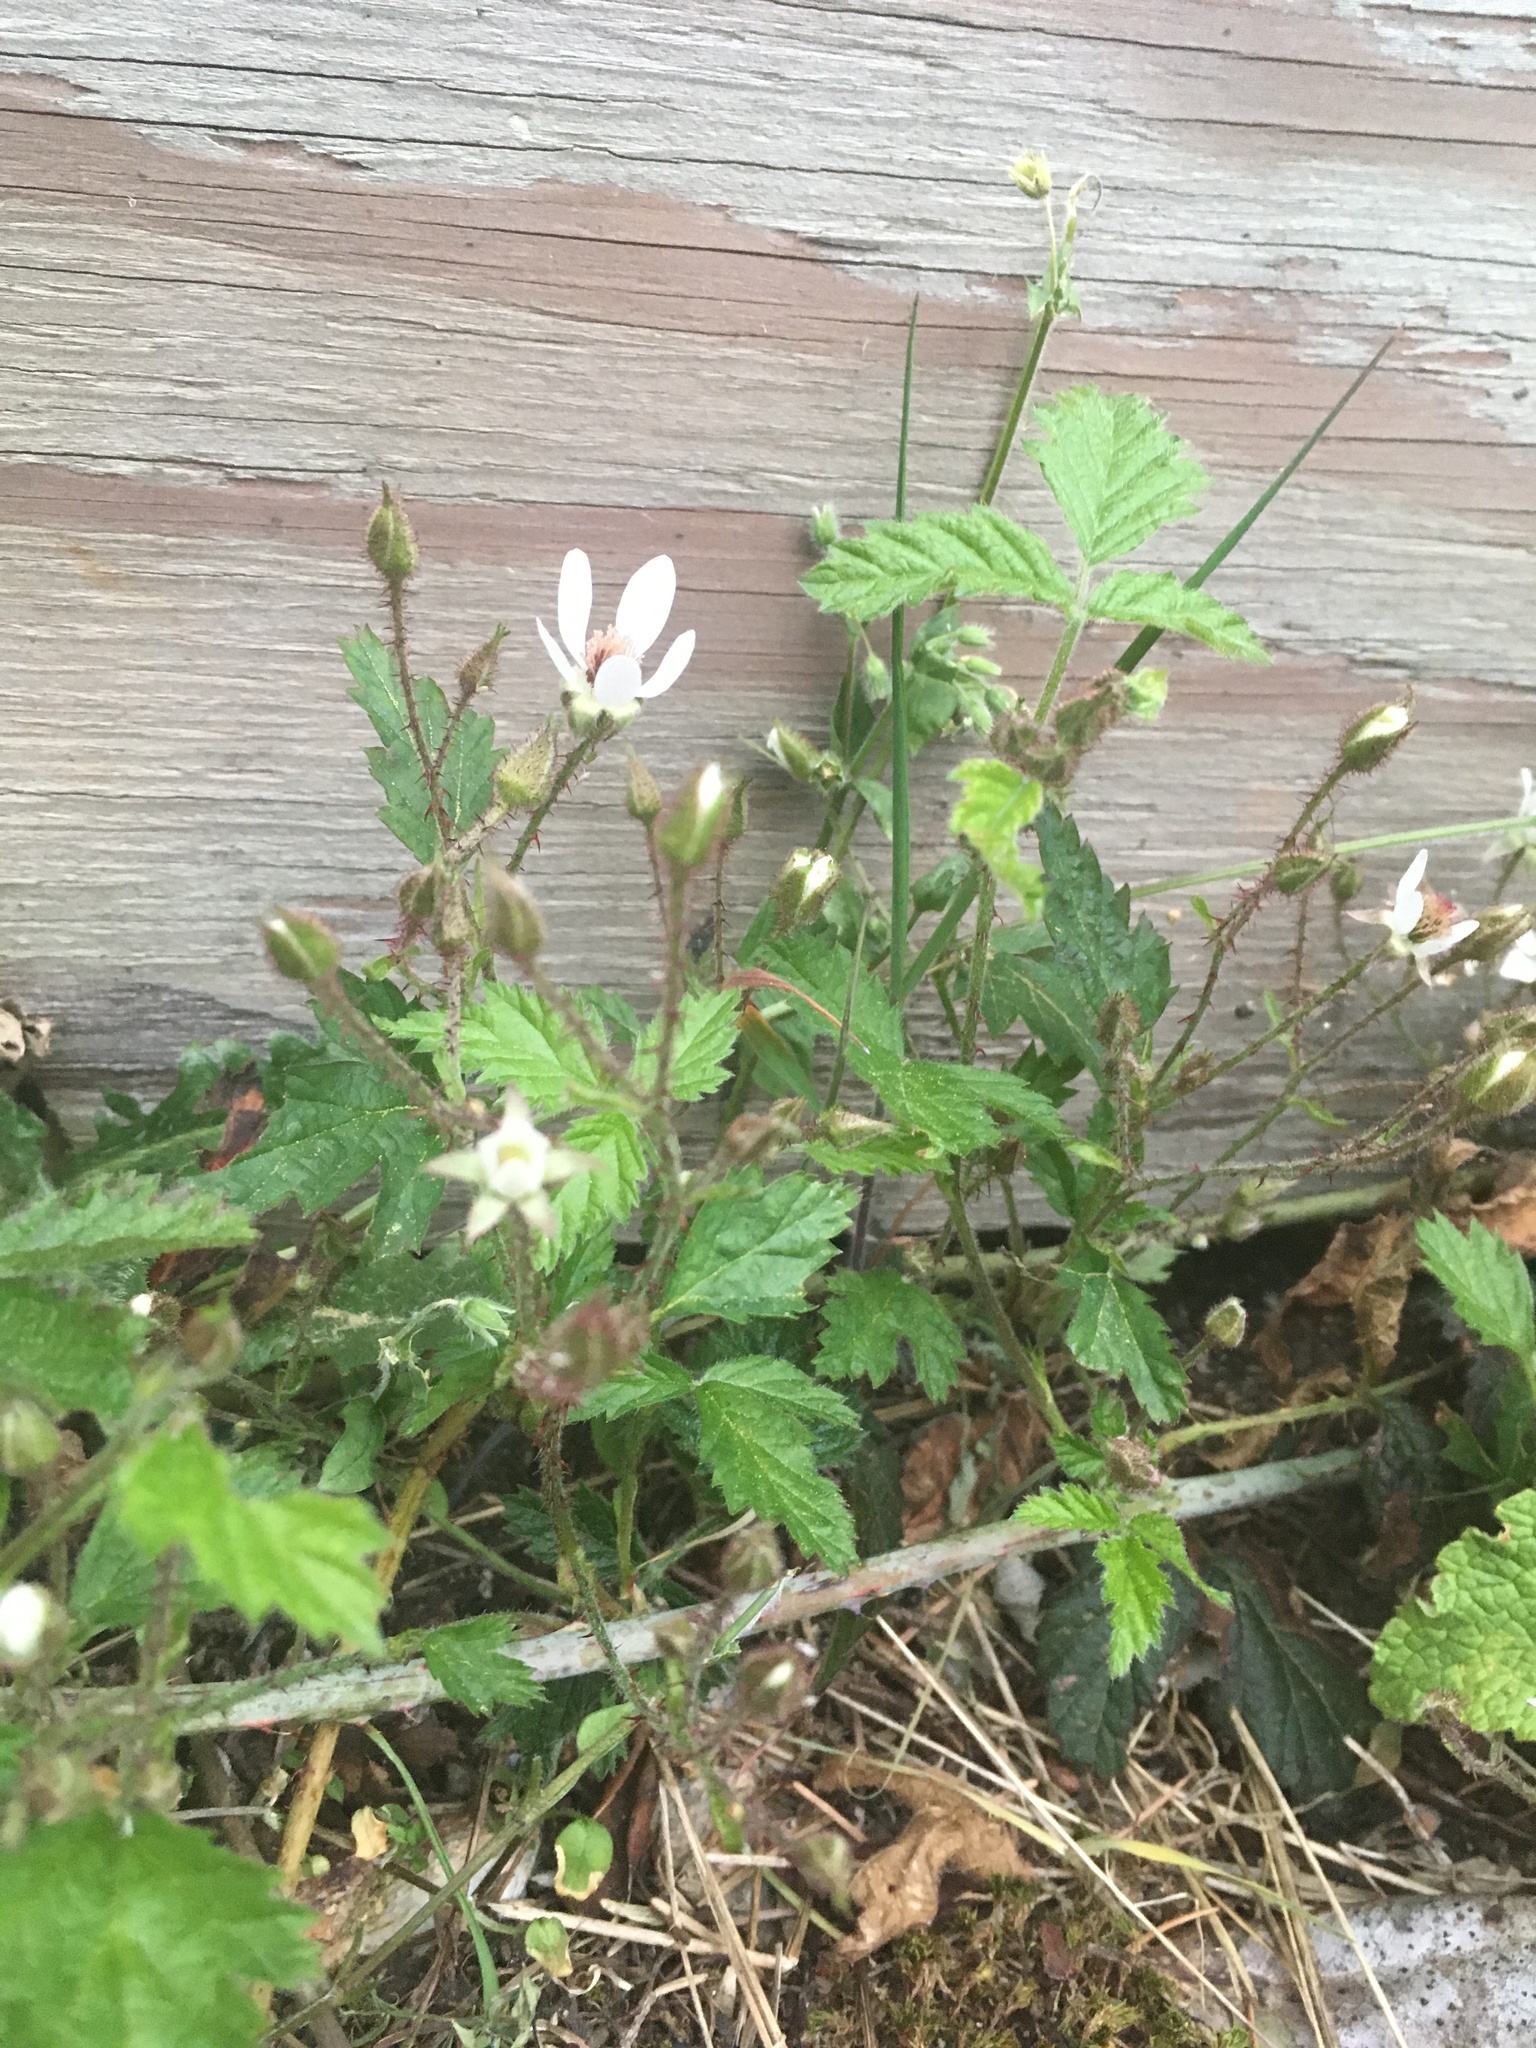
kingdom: Plantae
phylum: Tracheophyta
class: Magnoliopsida
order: Rosales
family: Rosaceae
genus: Rubus
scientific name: Rubus ursinus
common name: Pacific blackberry
